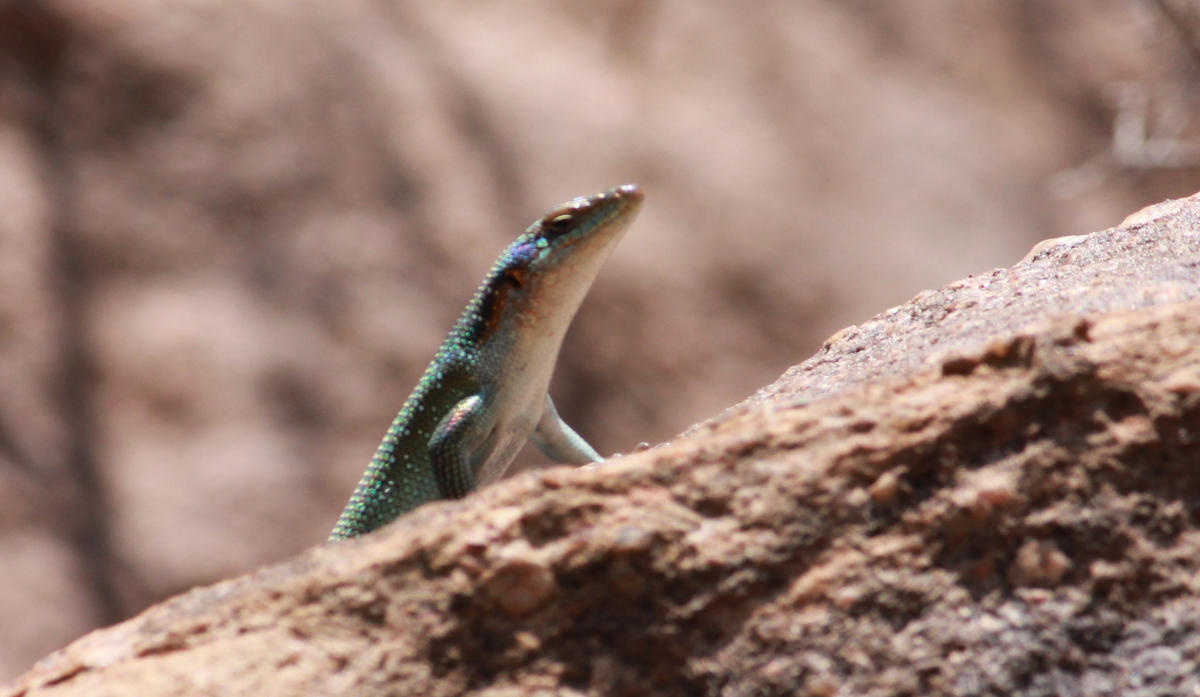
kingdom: Animalia
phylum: Chordata
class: Squamata
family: Scincidae
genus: Trachylepis
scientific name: Trachylepis margaritifera
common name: Rainbow skink
